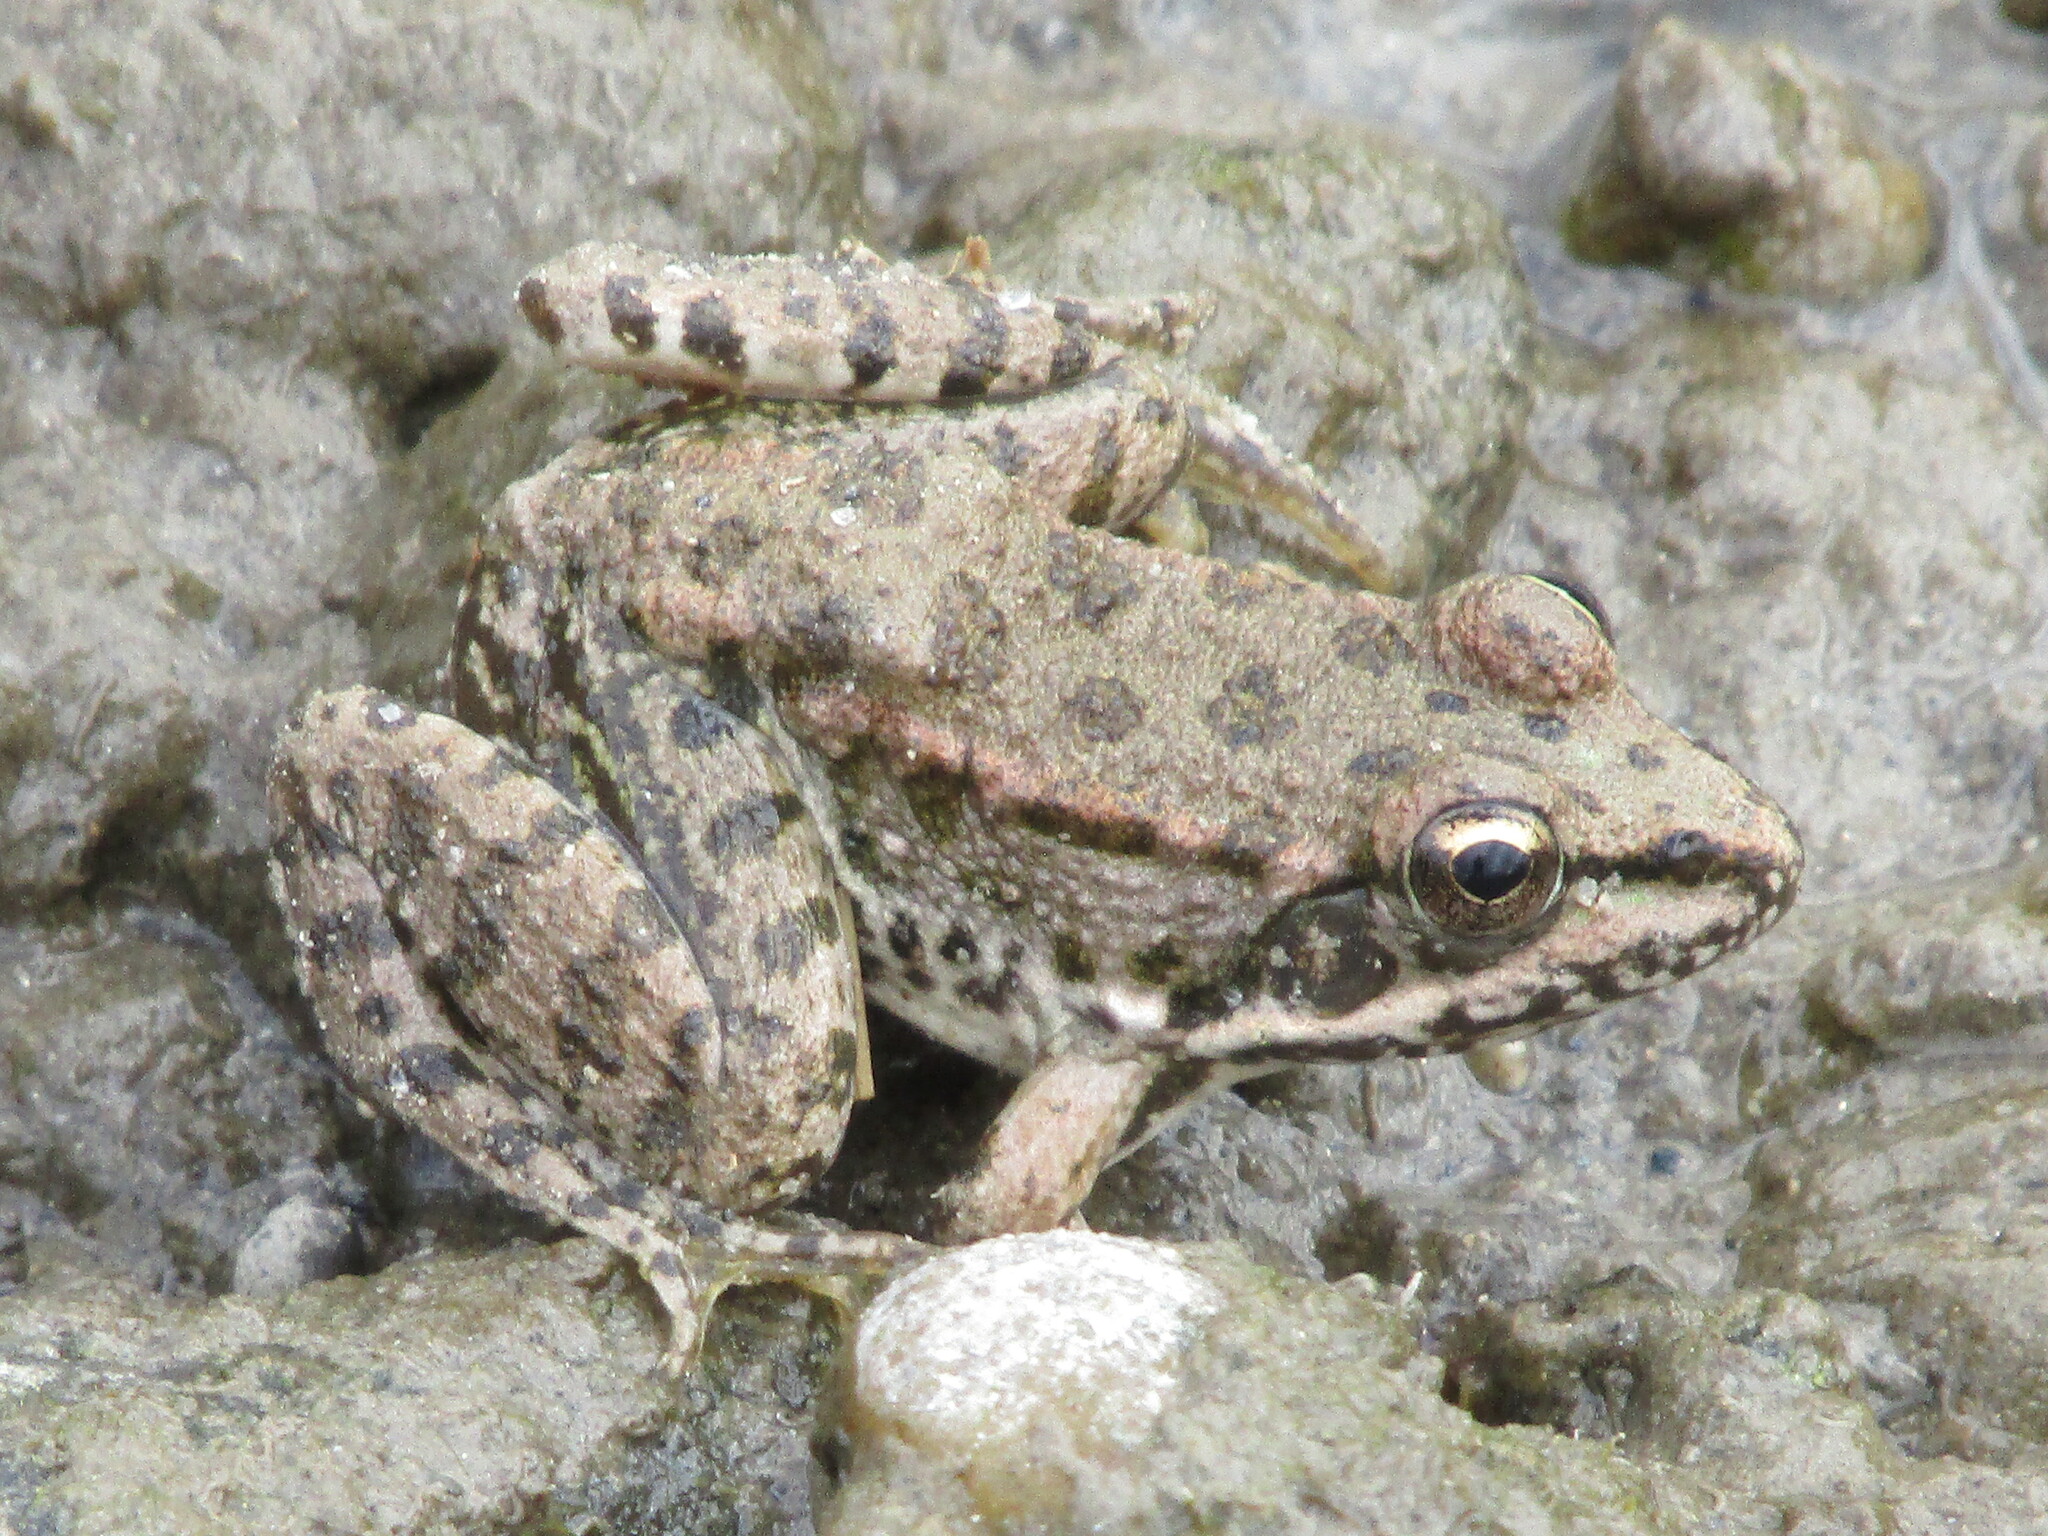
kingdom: Animalia
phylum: Chordata
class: Amphibia
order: Anura
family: Ranidae
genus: Pelophylax
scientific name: Pelophylax ridibundus
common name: Marsh frog
